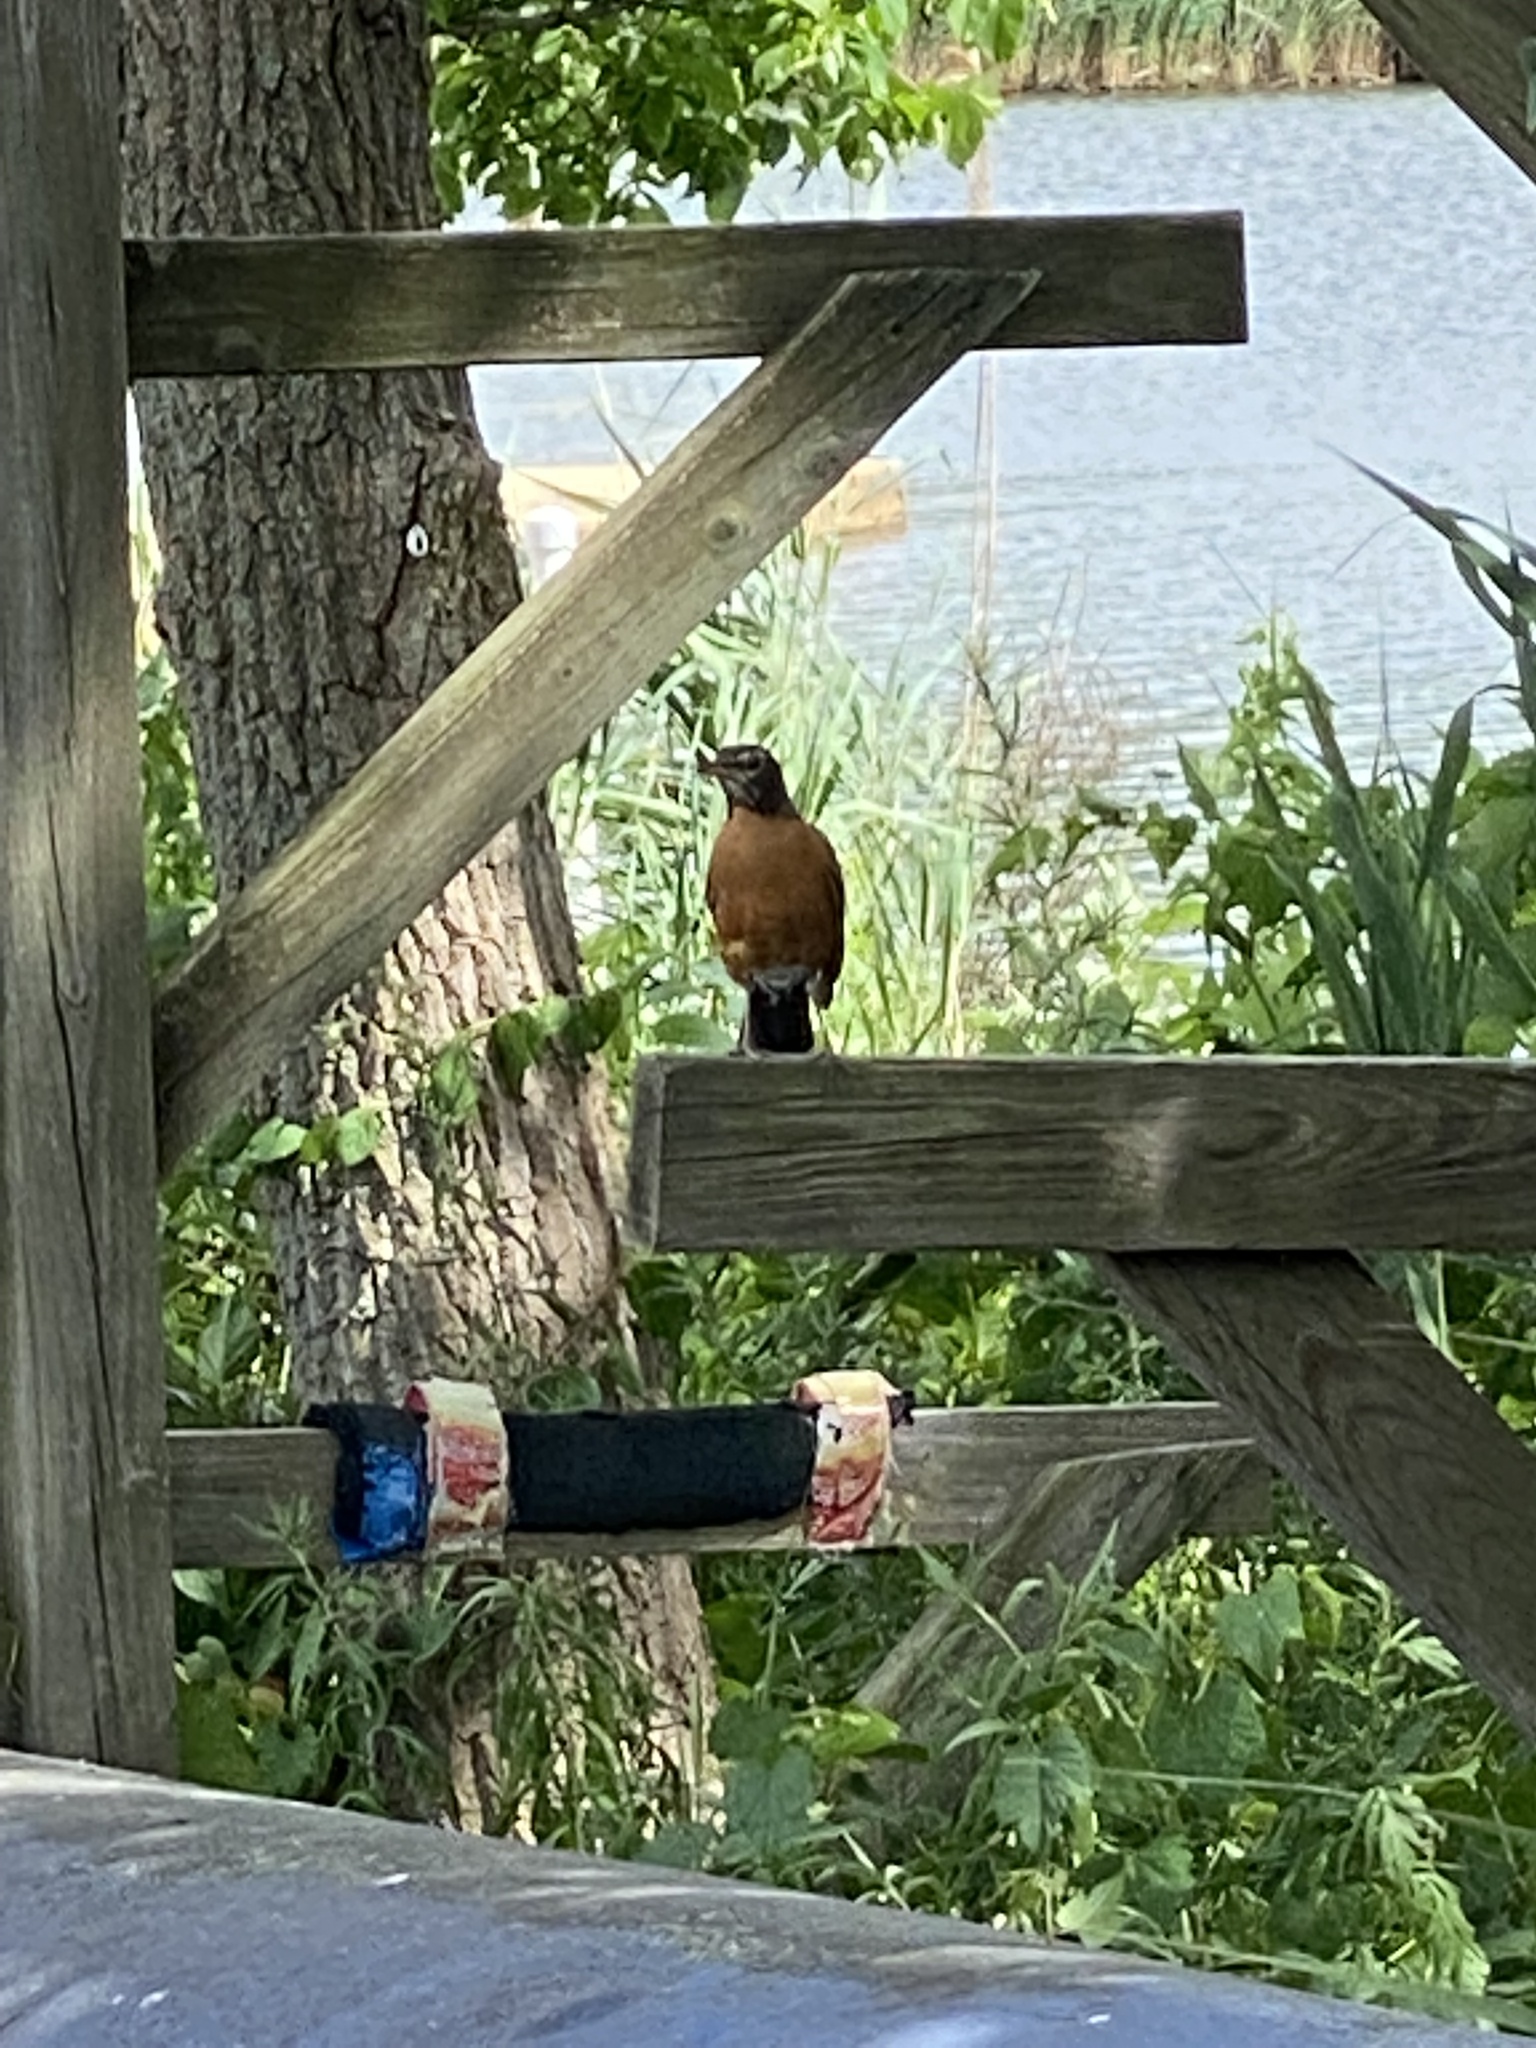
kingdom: Animalia
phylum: Chordata
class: Aves
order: Passeriformes
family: Turdidae
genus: Turdus
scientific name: Turdus migratorius
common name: American robin
